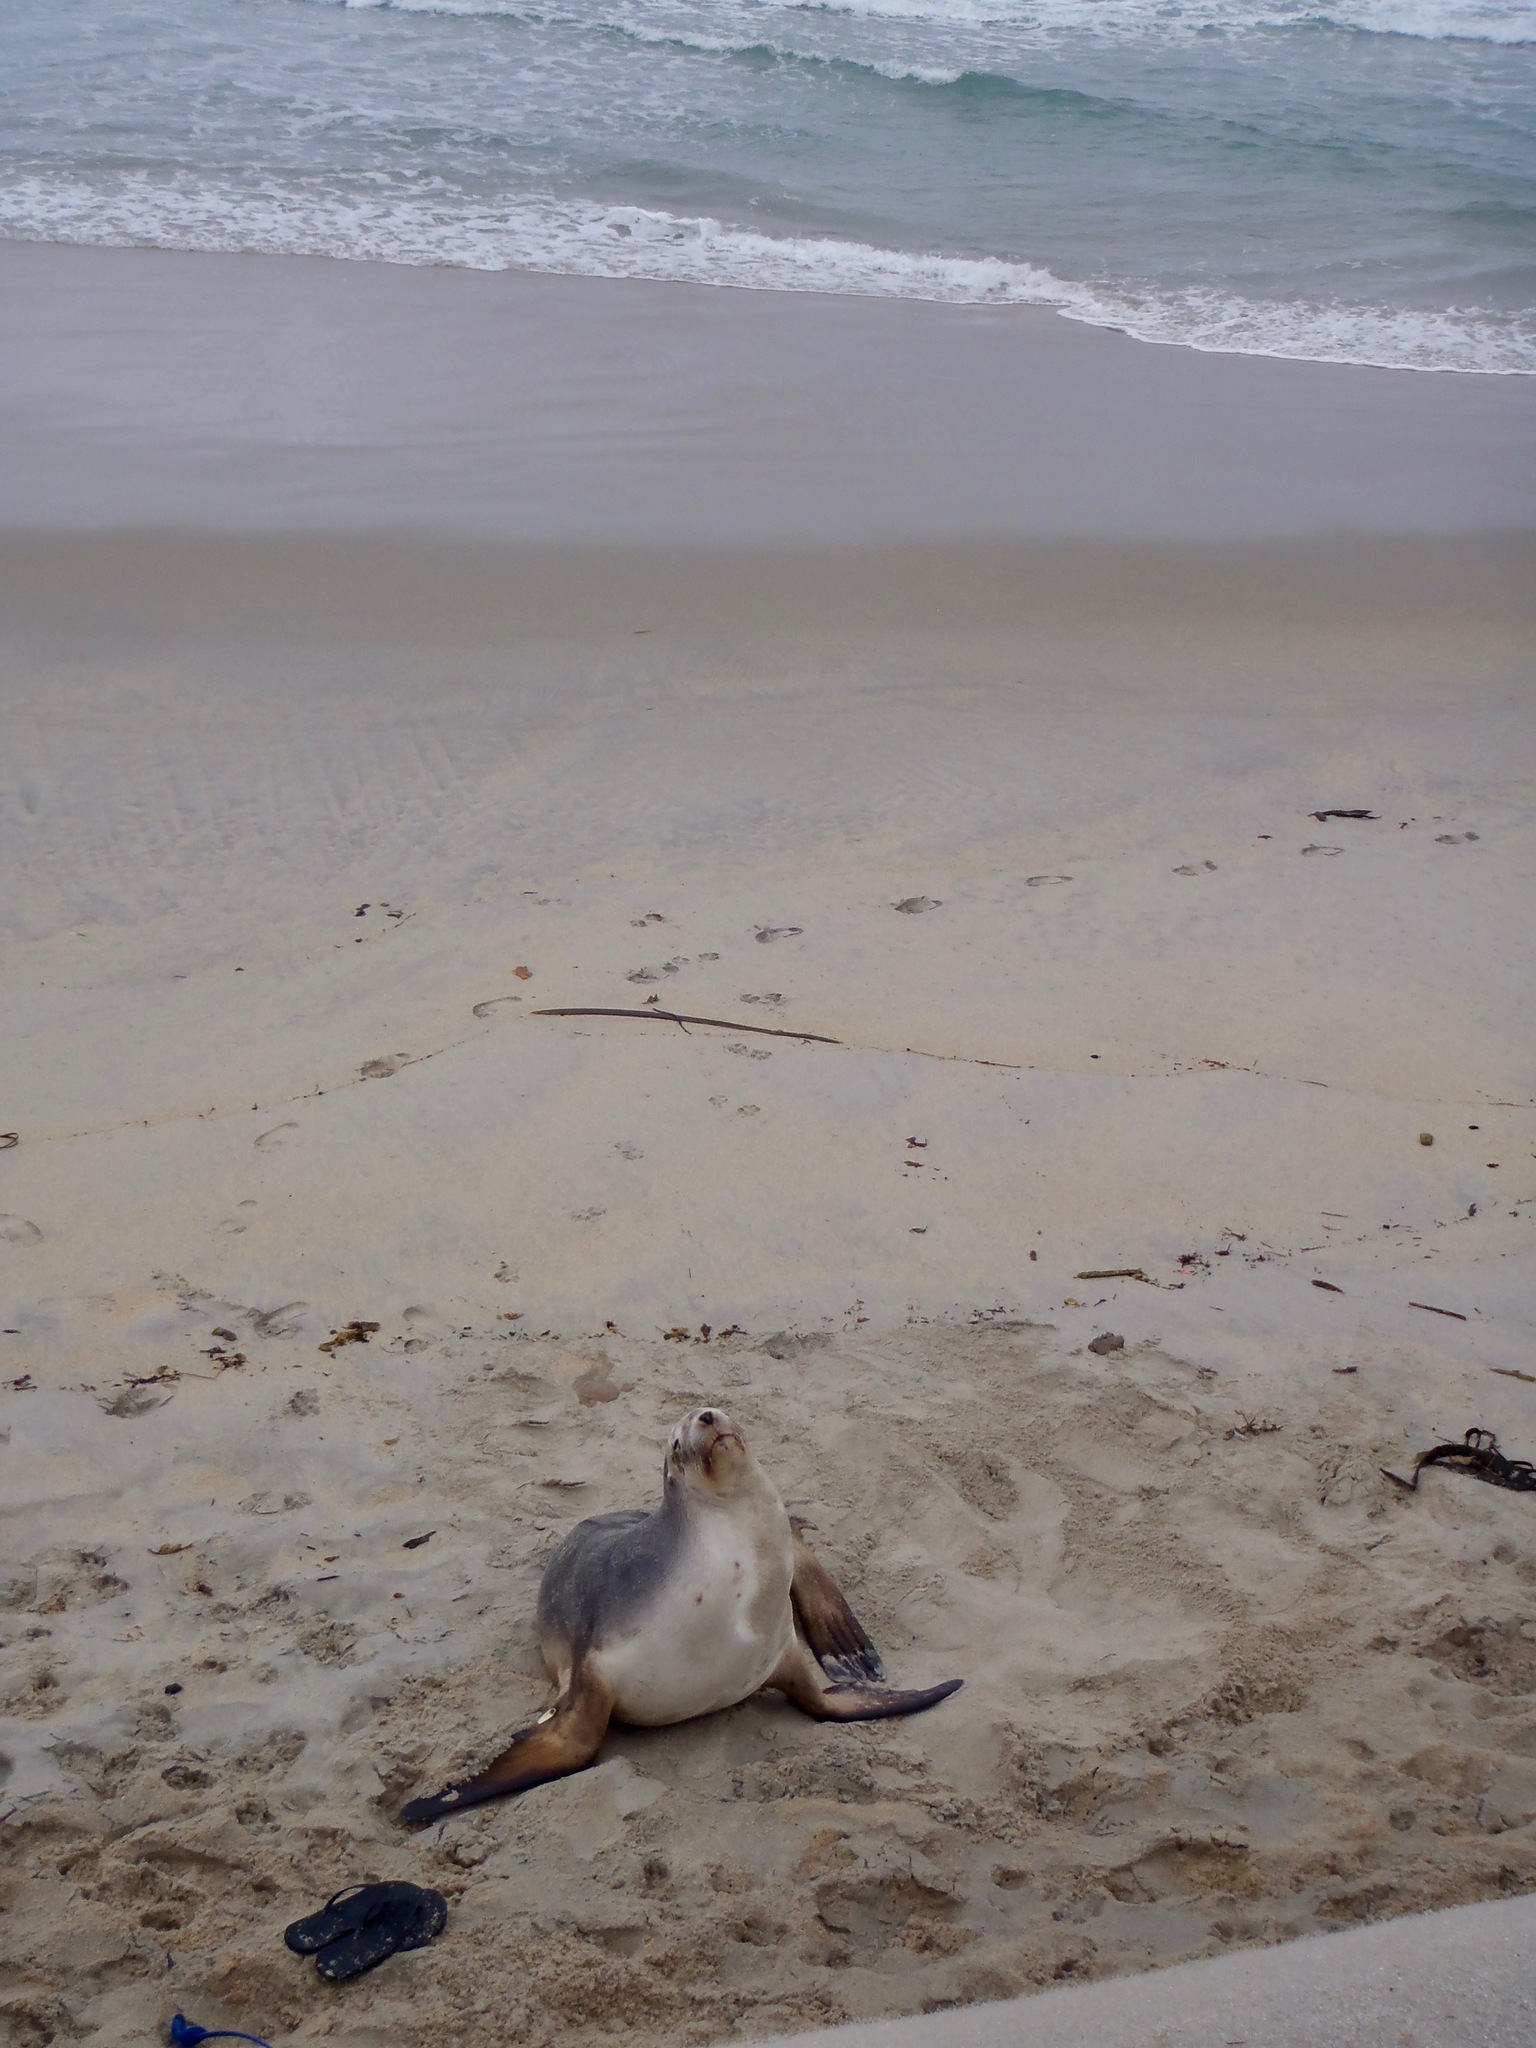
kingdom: Animalia
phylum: Chordata
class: Mammalia
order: Carnivora
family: Otariidae
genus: Phocarctos
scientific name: Phocarctos hookeri
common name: New zealand sea lion
